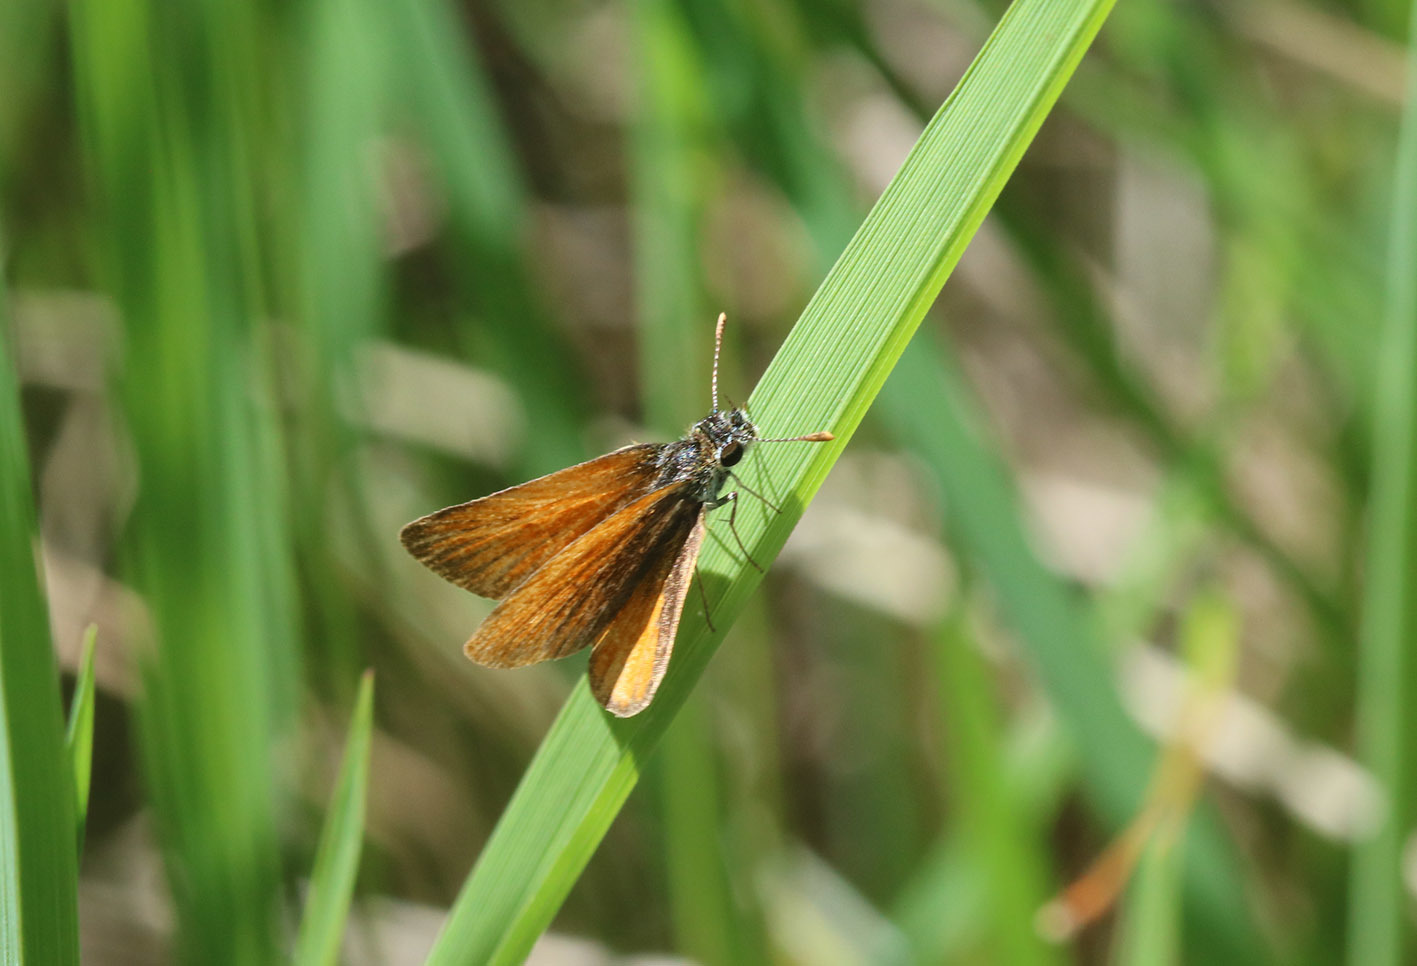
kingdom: Animalia
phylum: Arthropoda
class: Insecta
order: Lepidoptera
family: Hesperiidae
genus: Ancyloxypha
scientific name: Ancyloxypha nitedula
